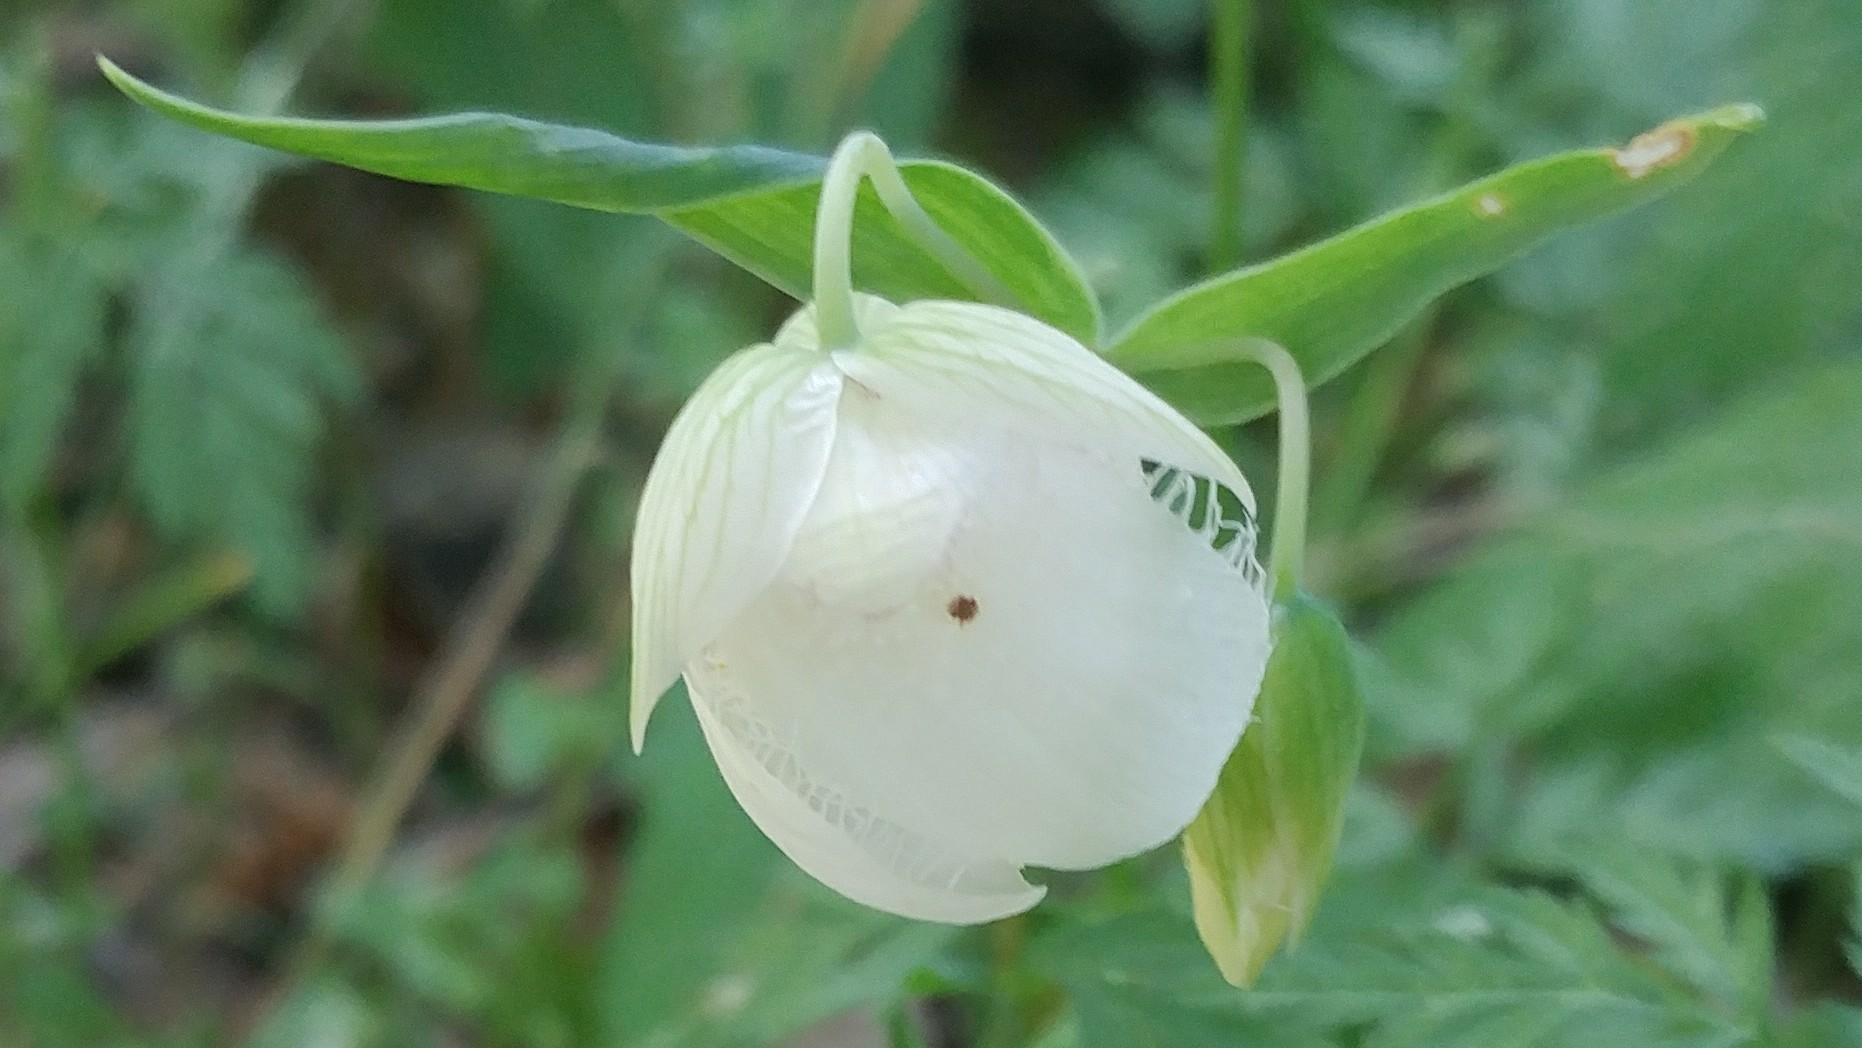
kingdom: Plantae
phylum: Tracheophyta
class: Liliopsida
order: Liliales
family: Liliaceae
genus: Calochortus
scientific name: Calochortus albus
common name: Fairy-lantern
